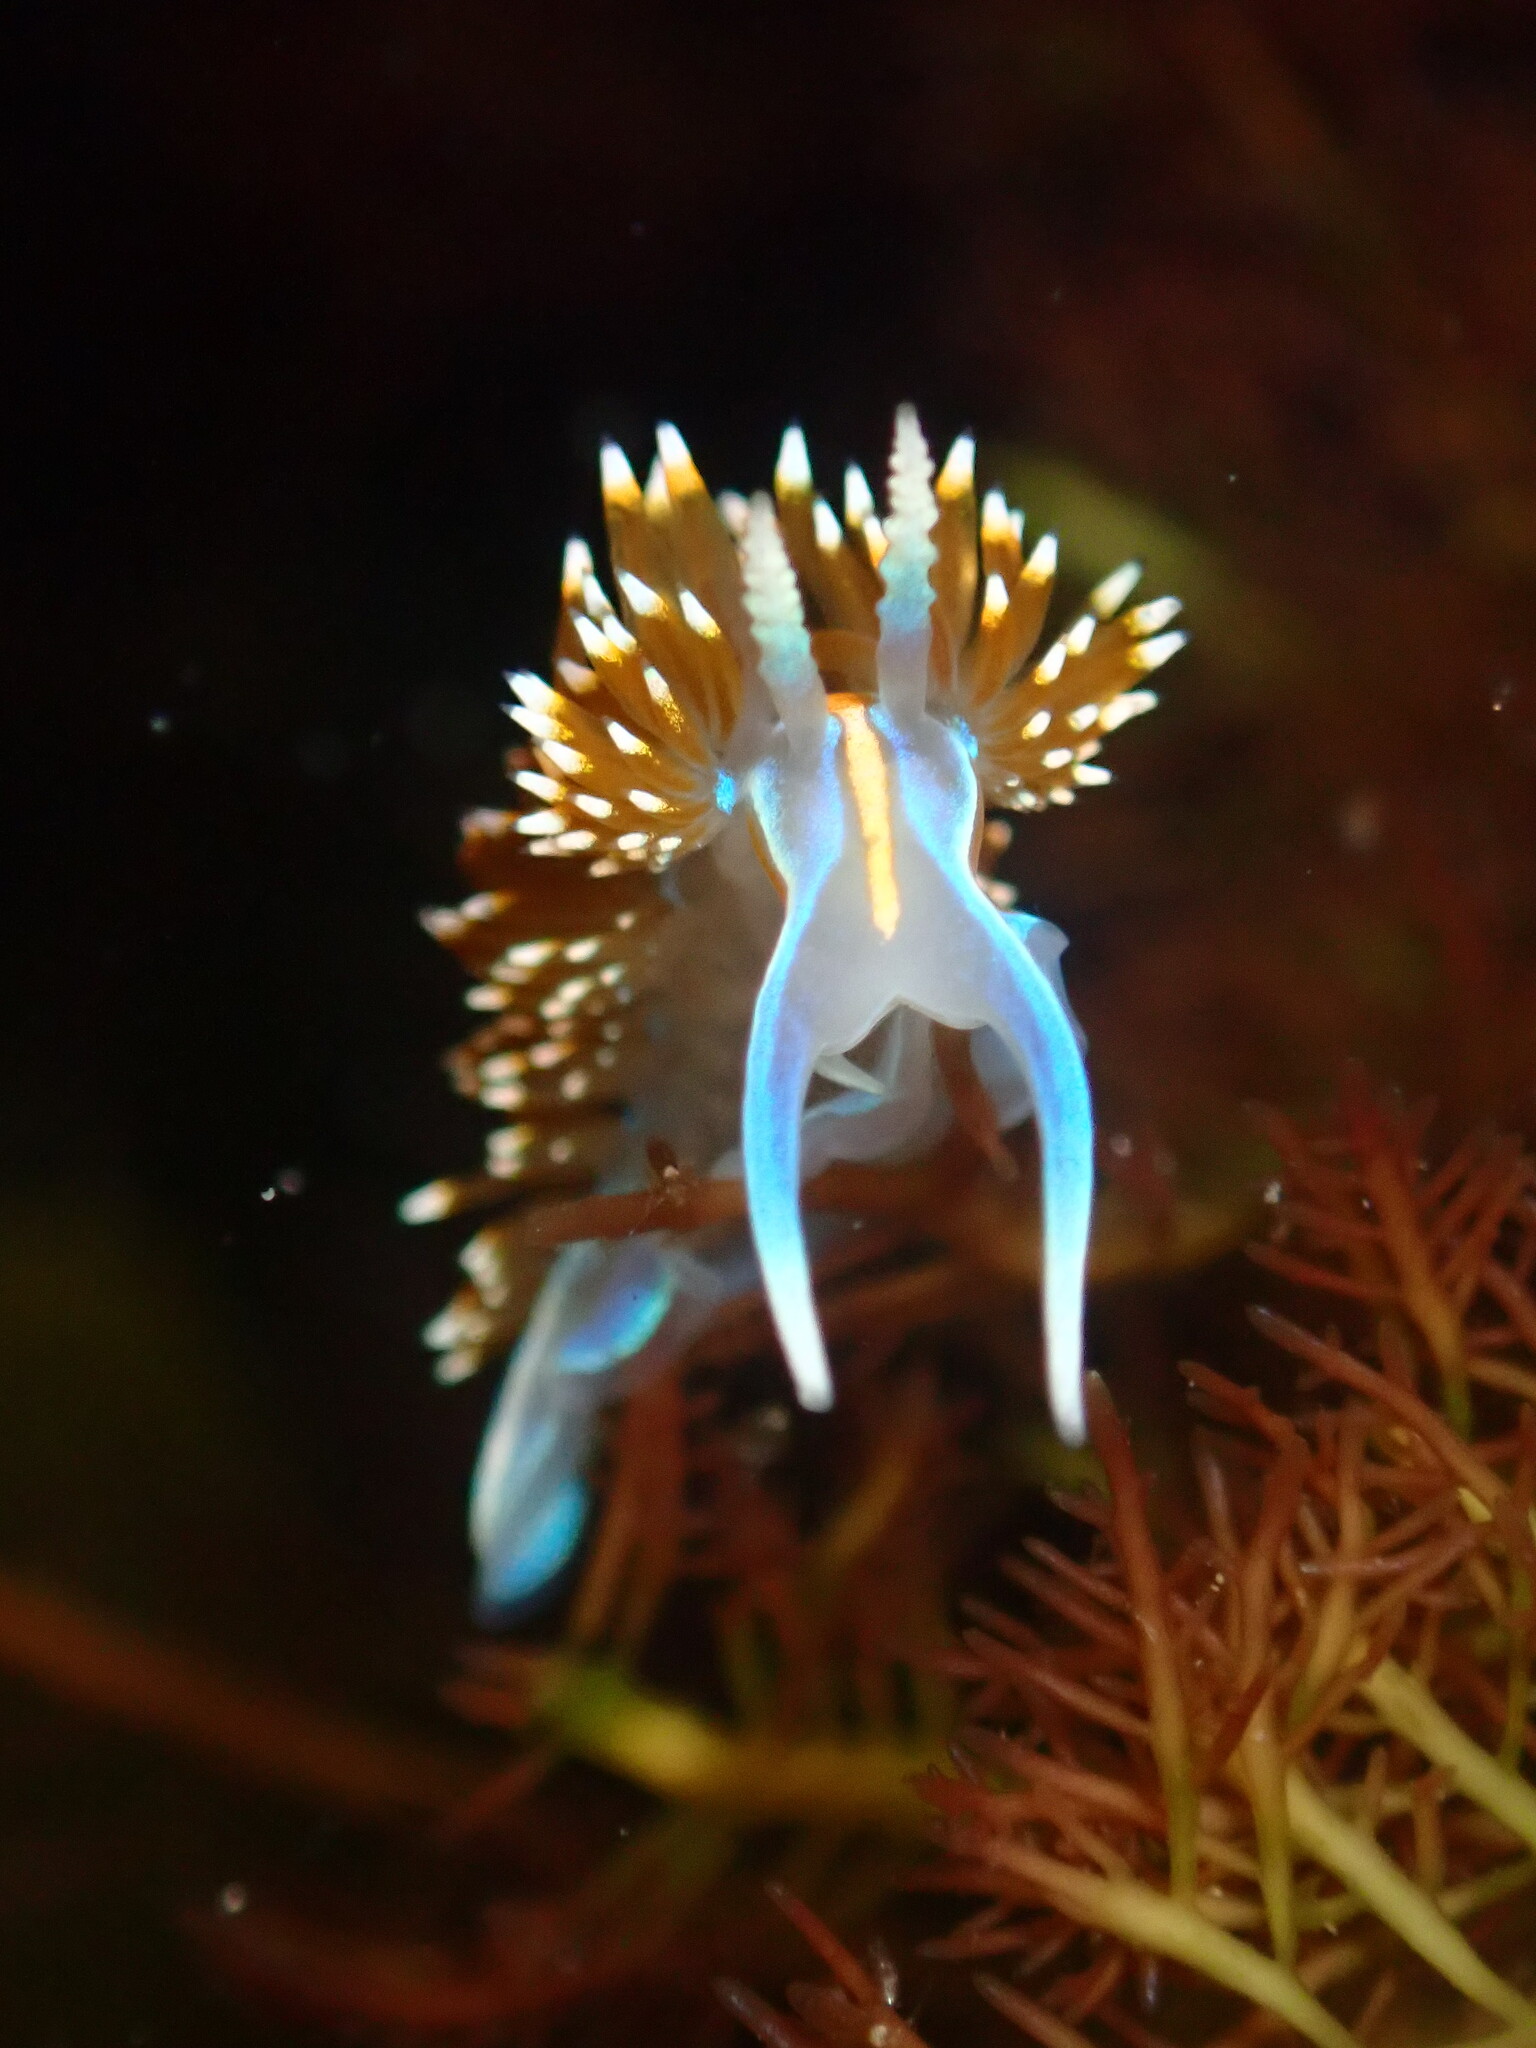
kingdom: Animalia
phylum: Mollusca
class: Gastropoda
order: Nudibranchia
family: Myrrhinidae
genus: Hermissenda
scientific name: Hermissenda opalescens
